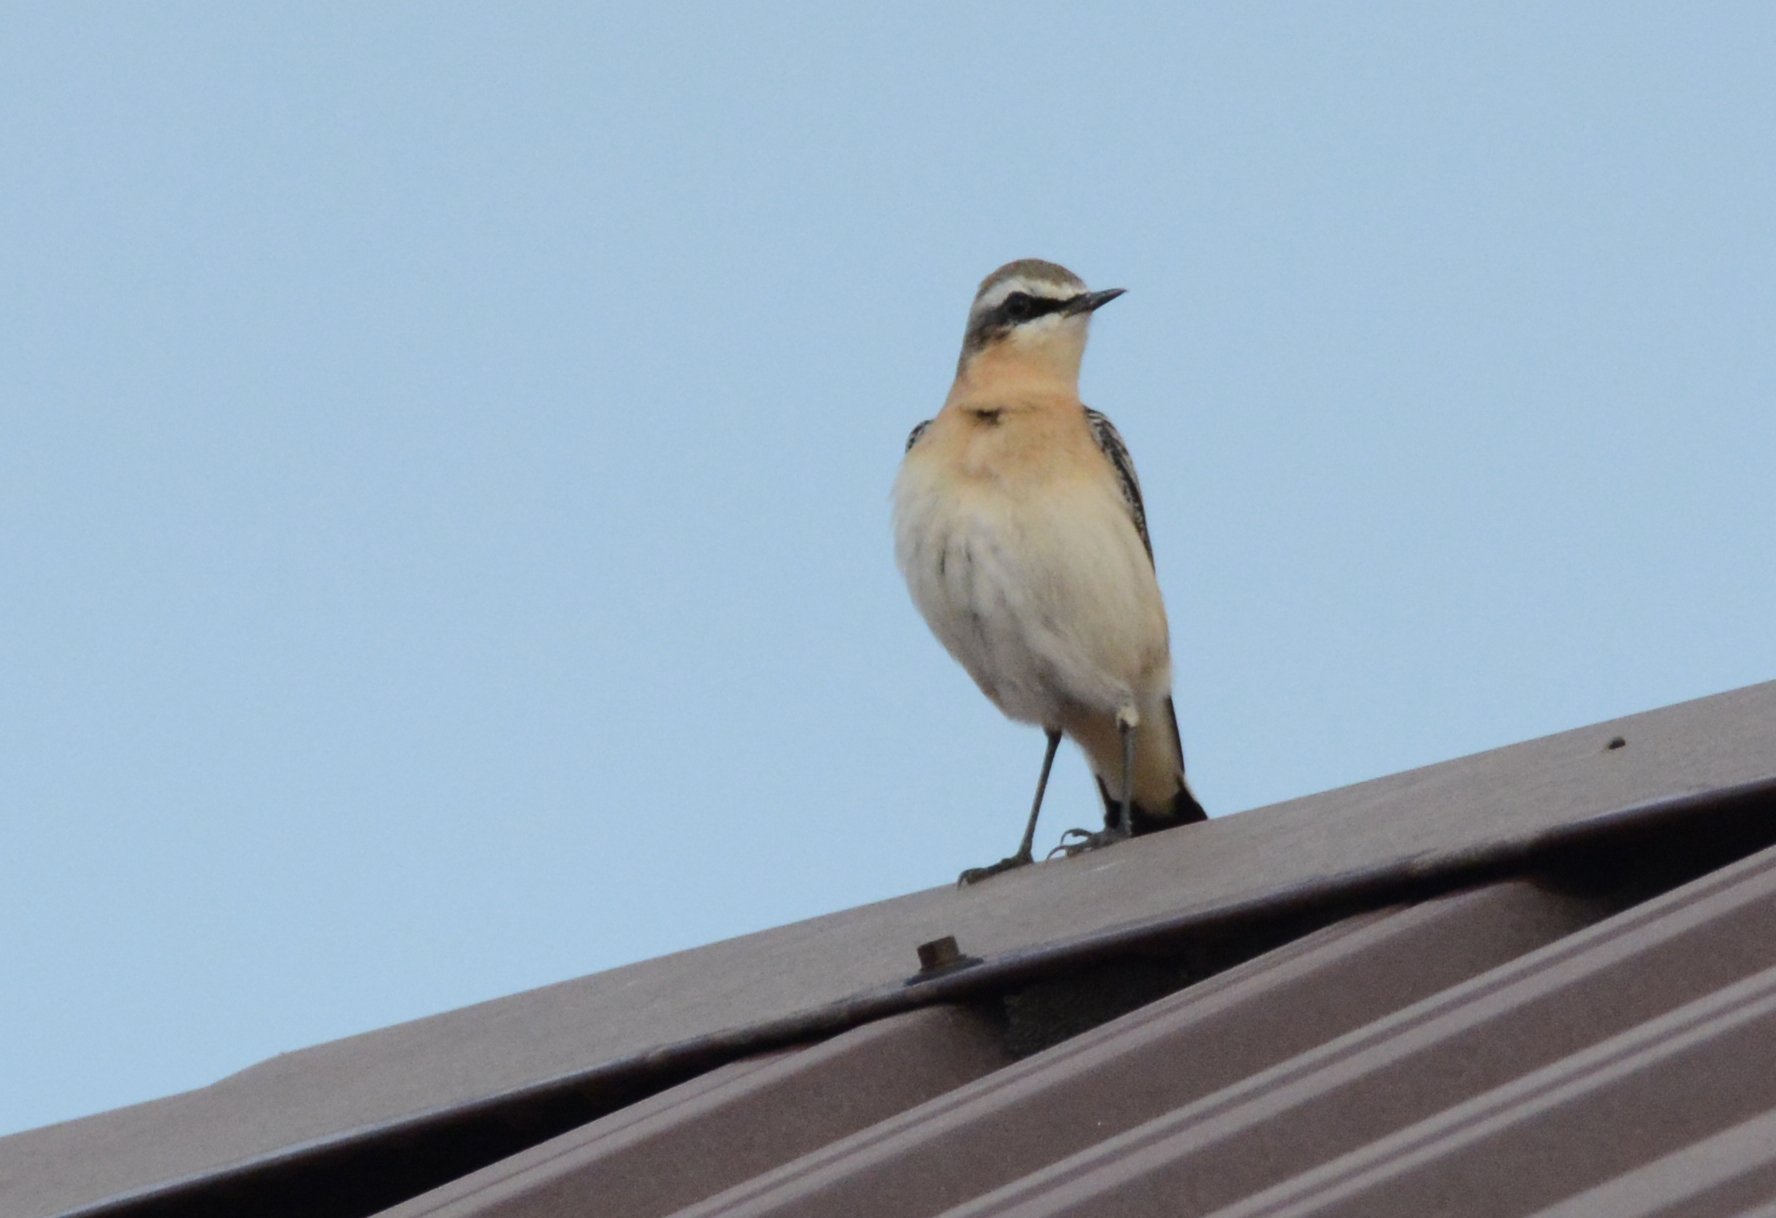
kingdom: Animalia
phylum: Chordata
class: Aves
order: Passeriformes
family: Muscicapidae
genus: Oenanthe
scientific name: Oenanthe oenanthe
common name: Northern wheatear
